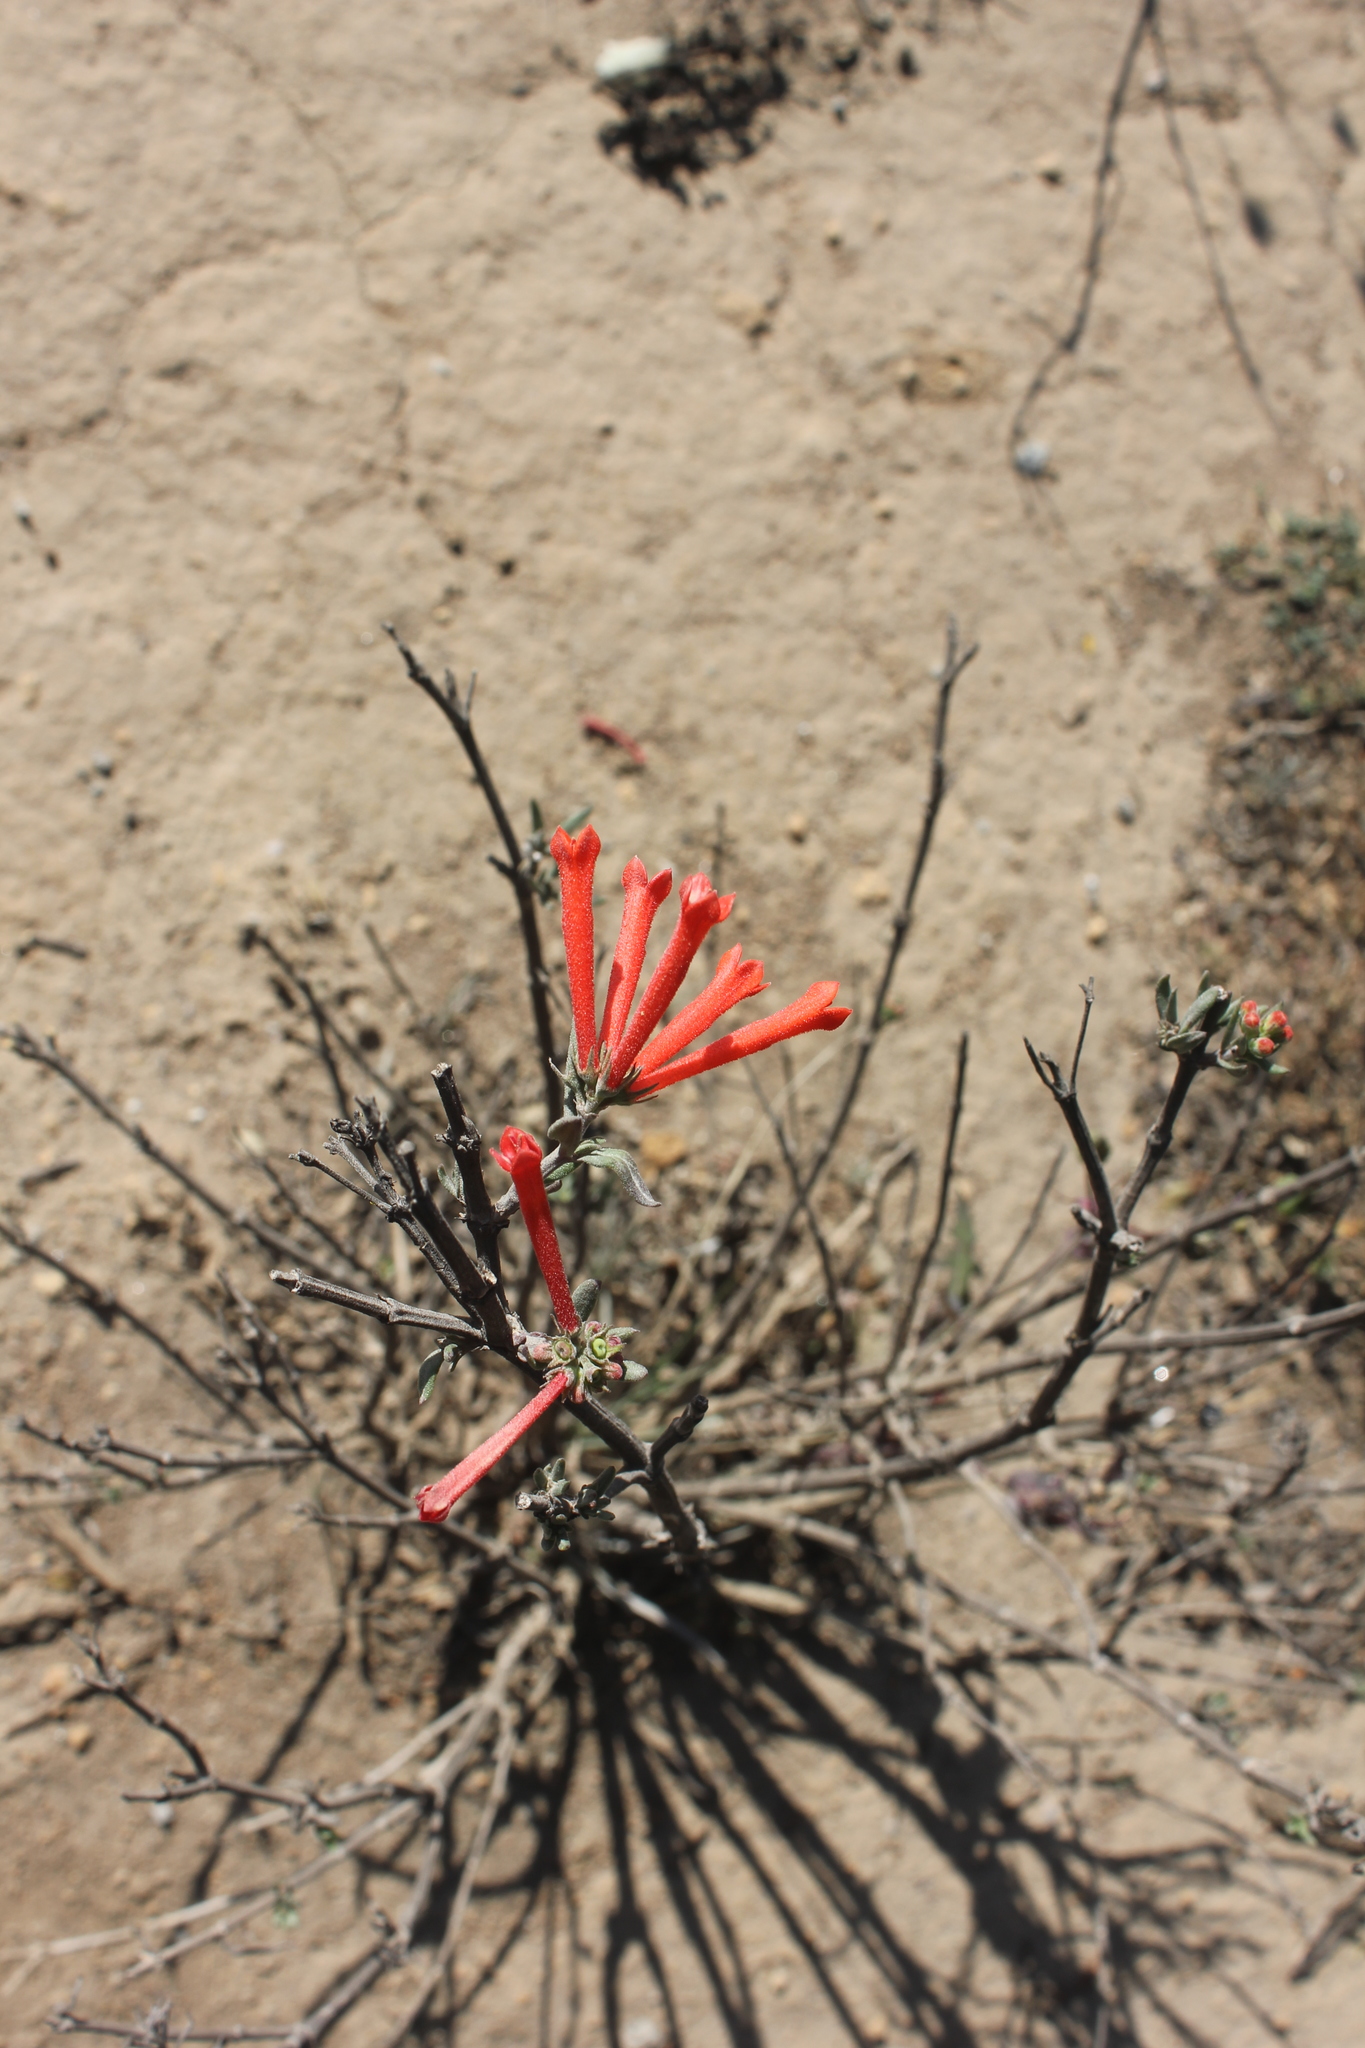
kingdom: Plantae
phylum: Tracheophyta
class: Magnoliopsida
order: Gentianales
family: Rubiaceae
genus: Bouvardia
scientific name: Bouvardia ternifolia
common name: Scarlet bouvardia
